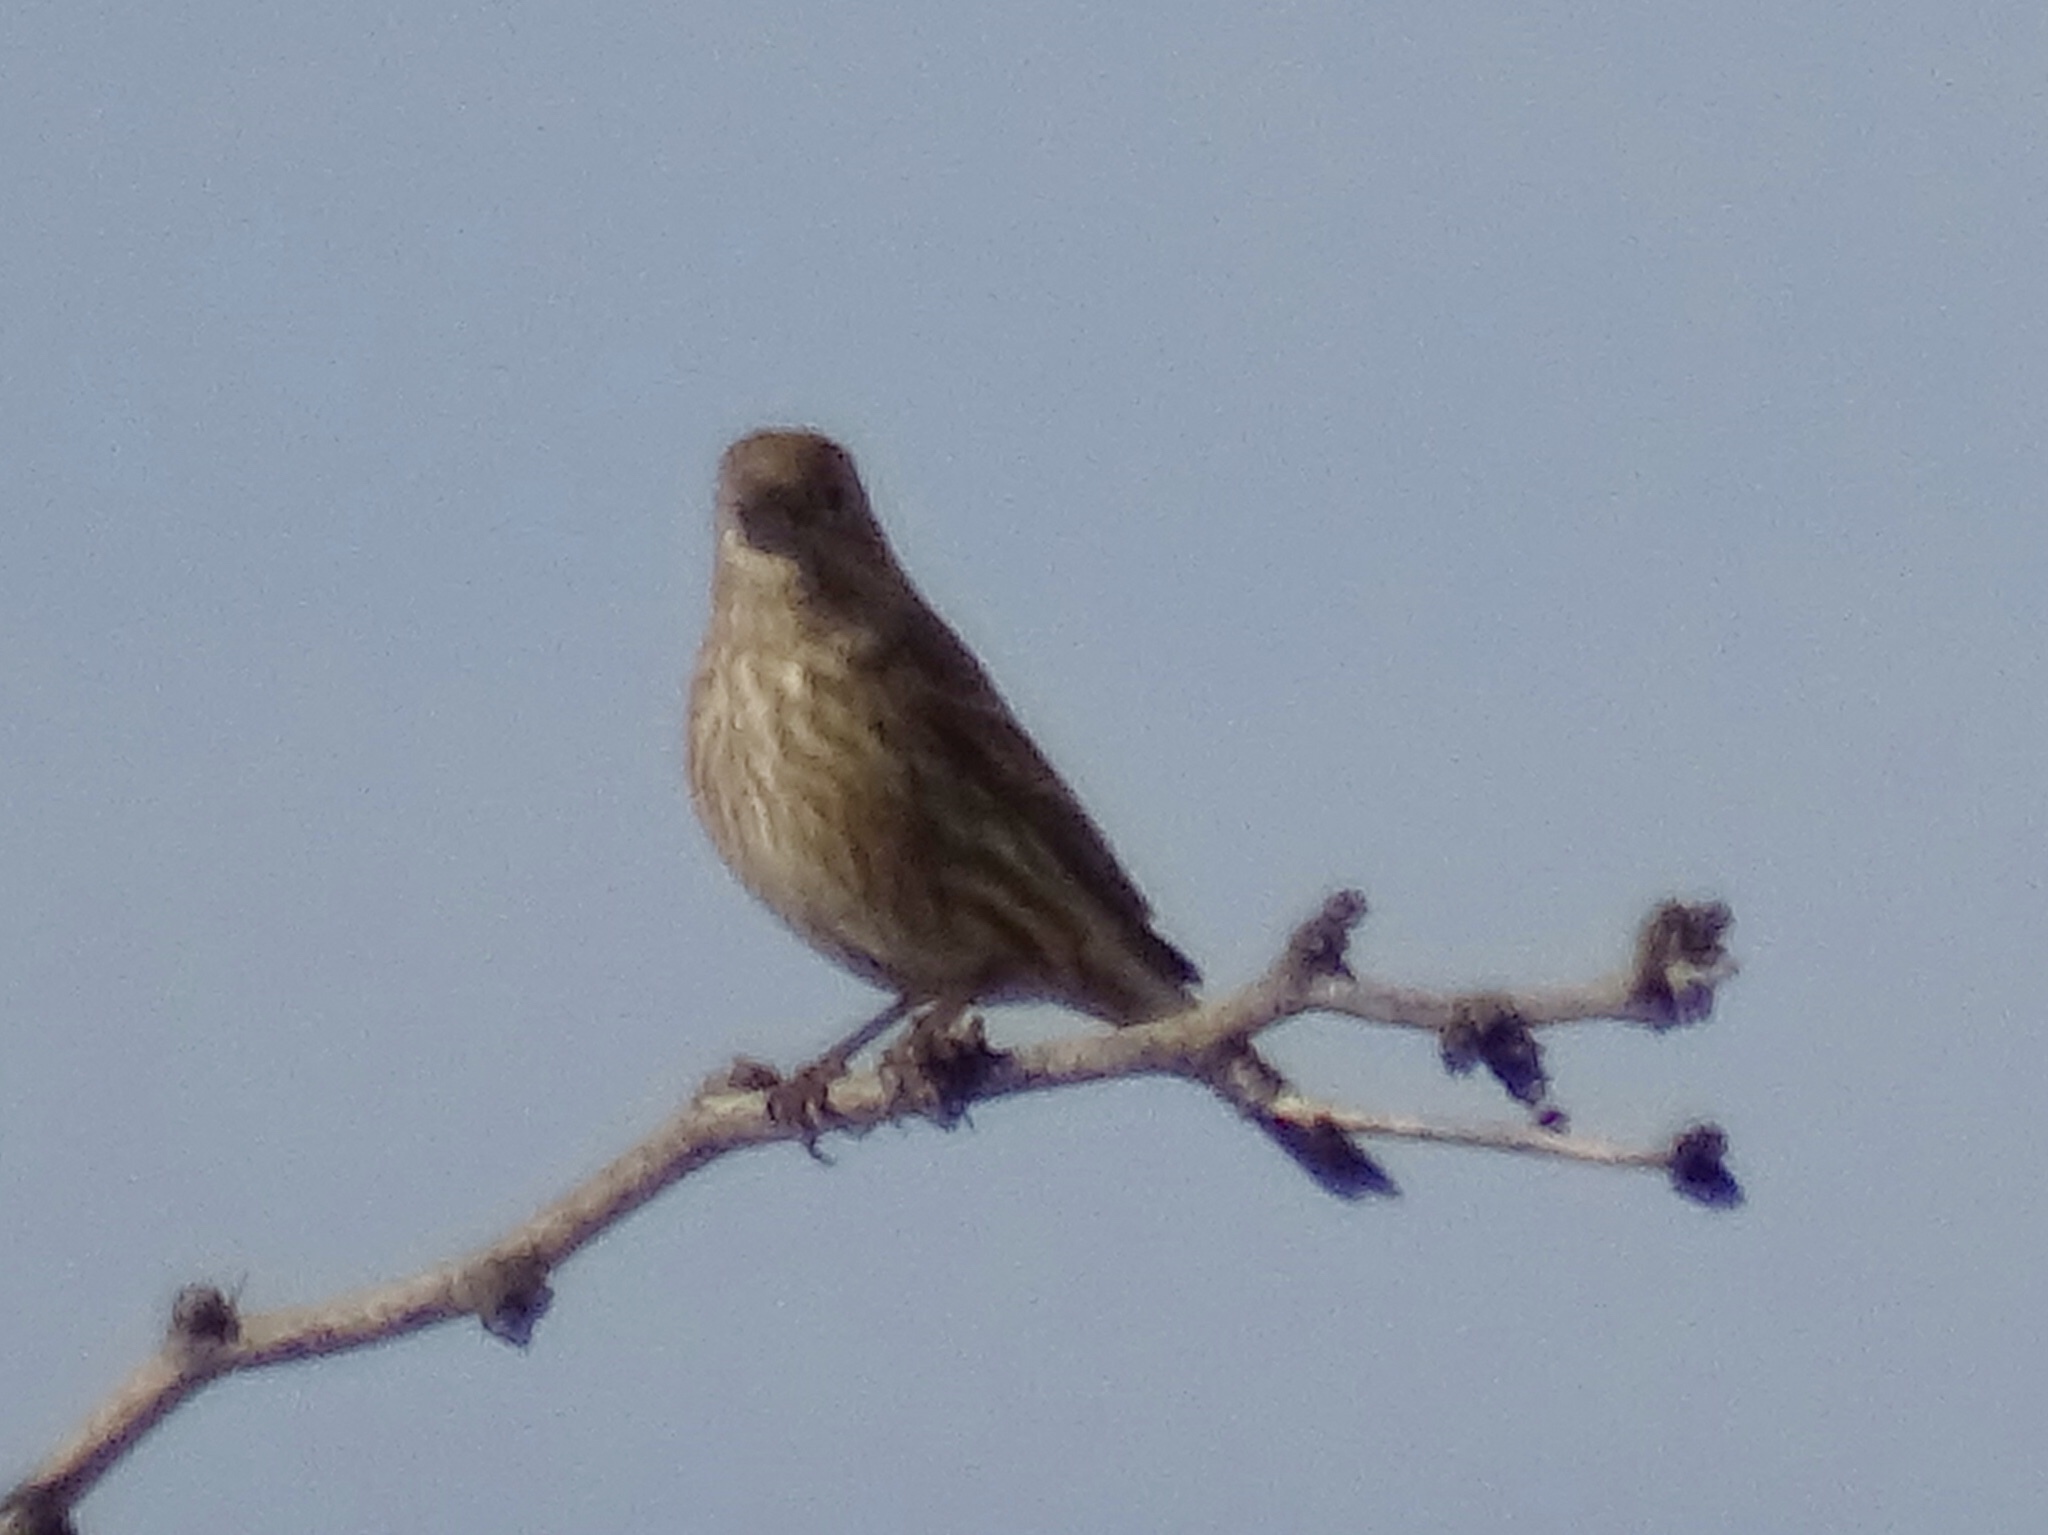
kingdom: Animalia
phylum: Chordata
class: Aves
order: Passeriformes
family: Fringillidae
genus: Haemorhous
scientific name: Haemorhous mexicanus
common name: House finch
